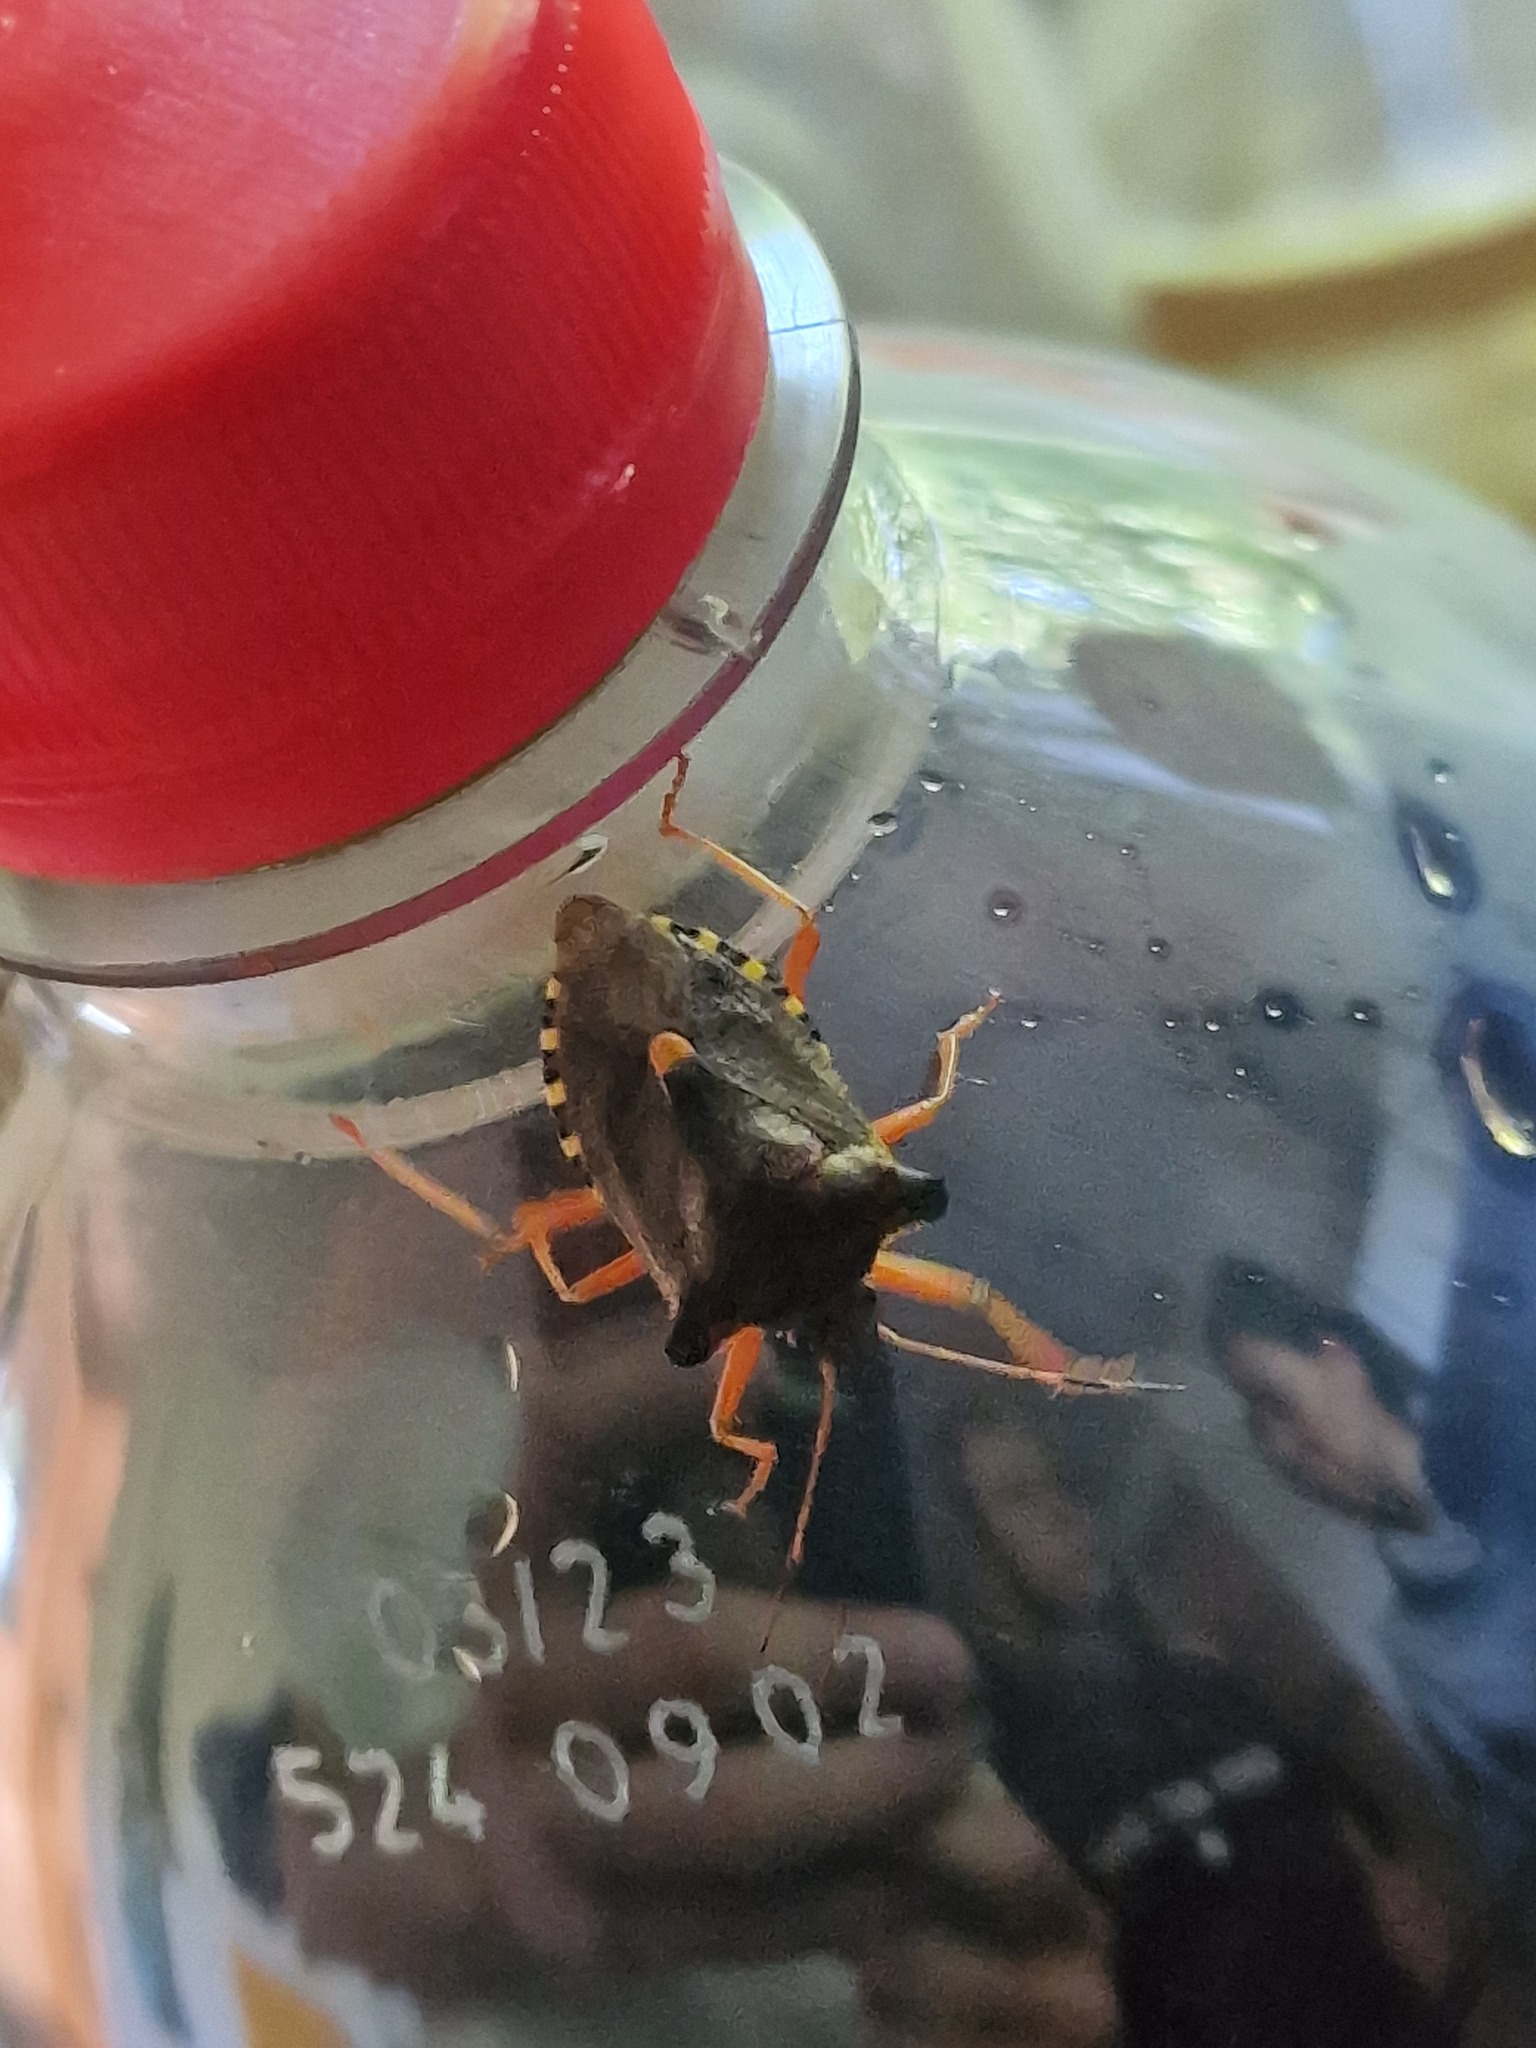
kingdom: Animalia
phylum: Arthropoda
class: Insecta
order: Hemiptera
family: Pentatomidae
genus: Pentatoma
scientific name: Pentatoma rufipes
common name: Forest bug
